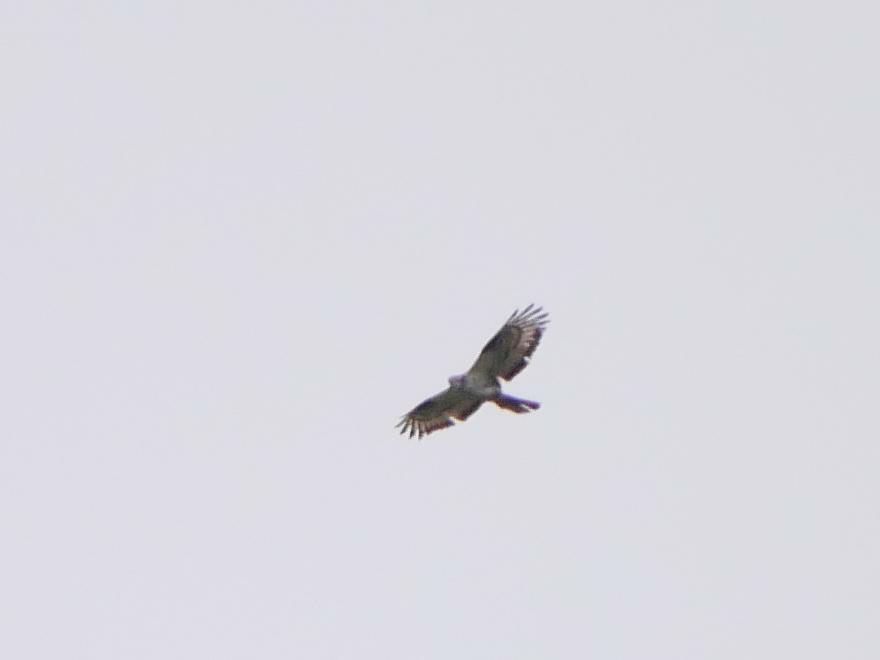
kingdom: Animalia
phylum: Chordata
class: Aves
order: Accipitriformes
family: Accipitridae
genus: Pernis
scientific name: Pernis apivorus
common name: European honey buzzard
